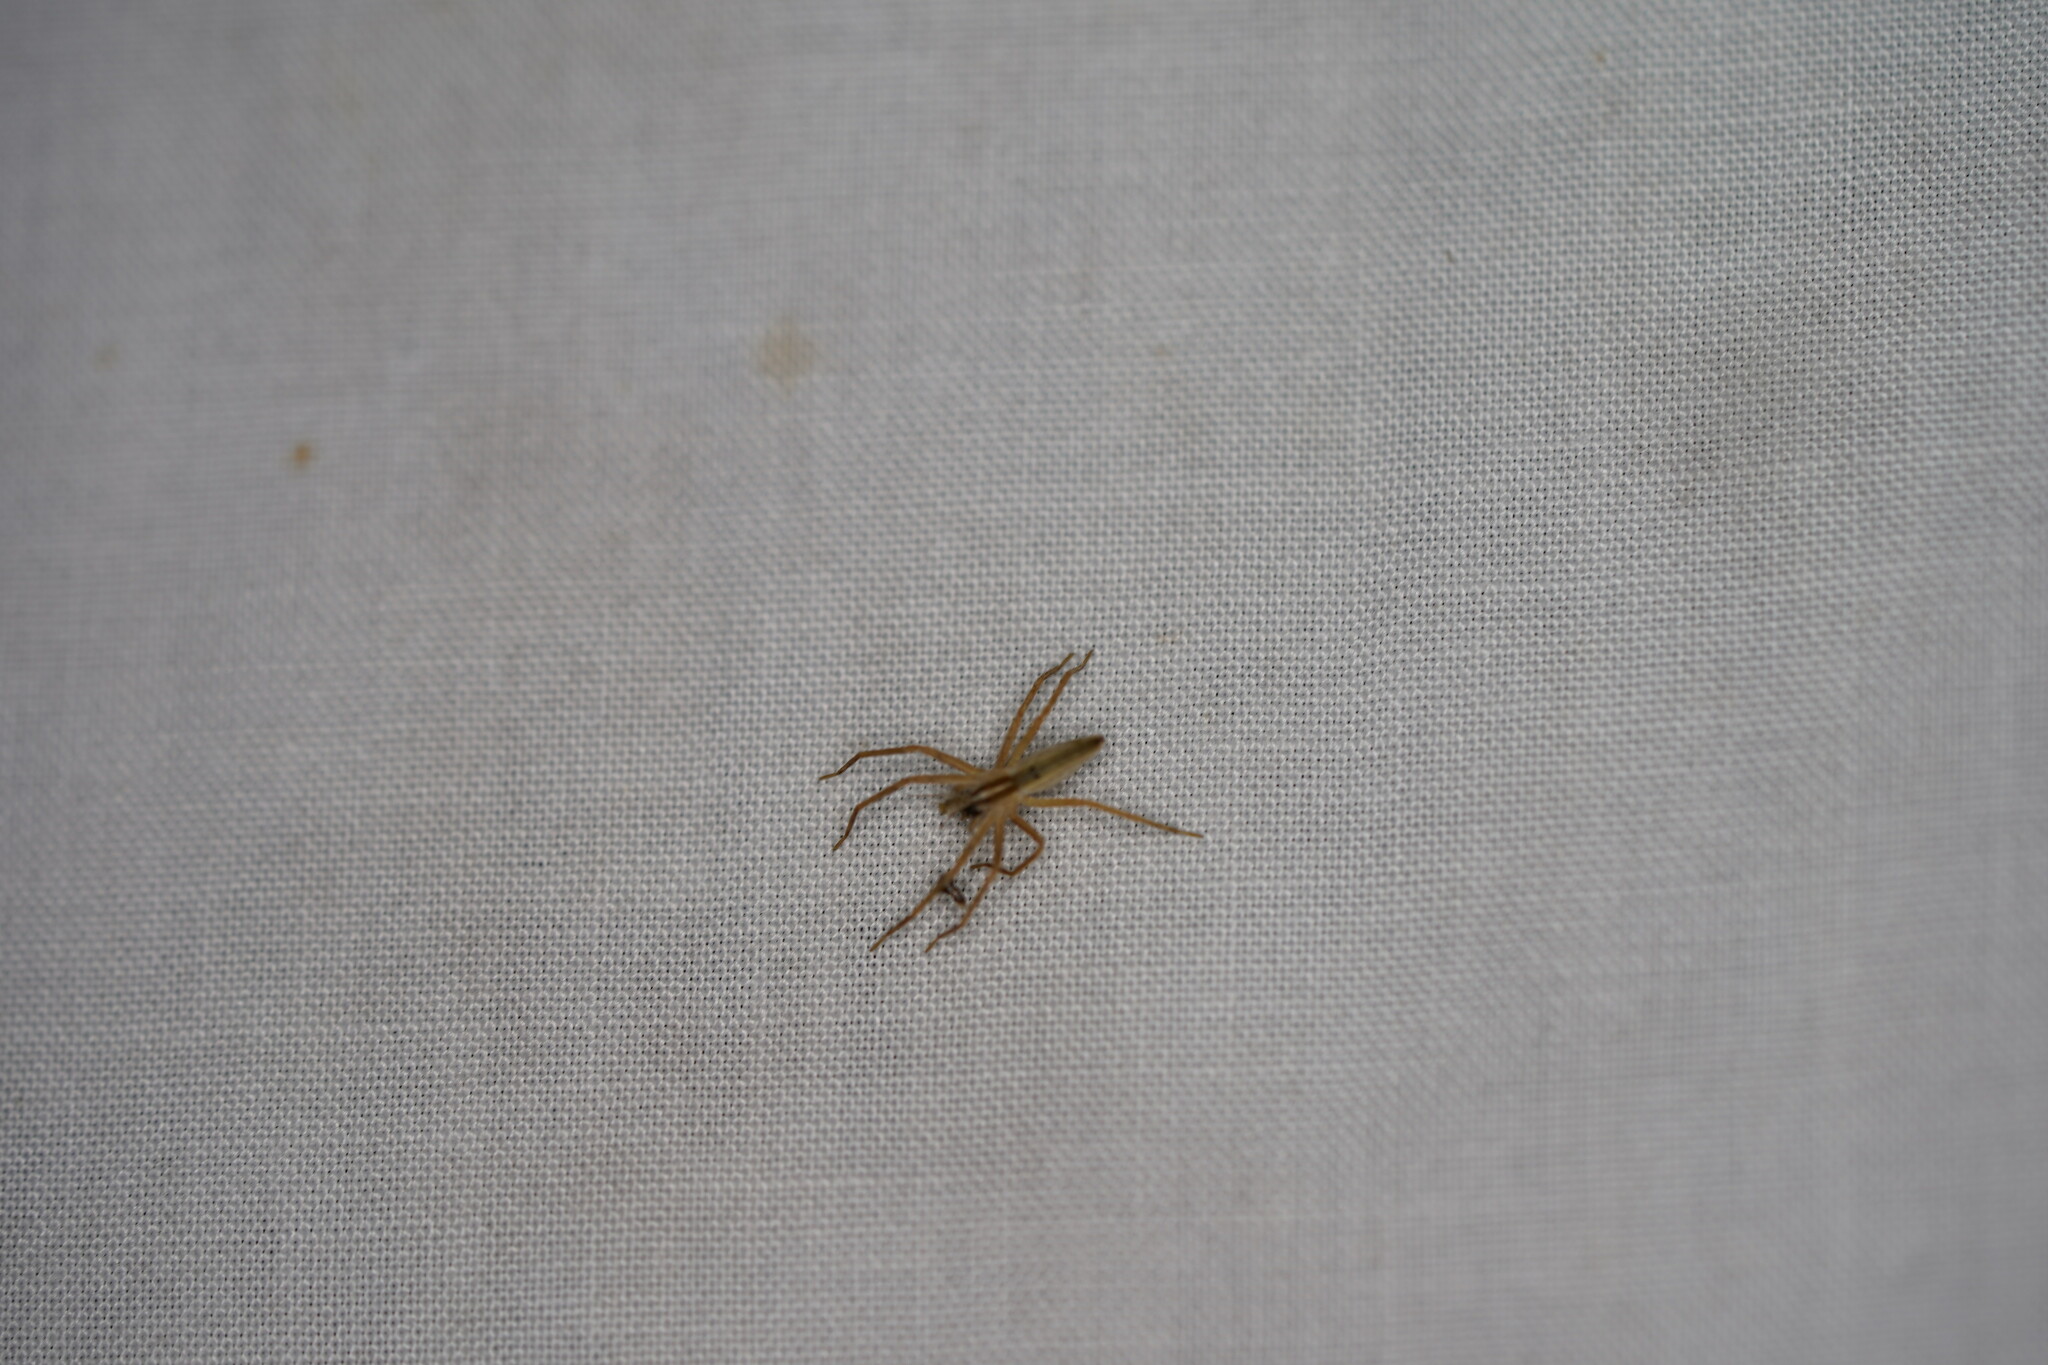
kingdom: Animalia
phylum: Arthropoda
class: Arachnida
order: Araneae
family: Pisauridae
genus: Pisaurina
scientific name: Pisaurina dubia
